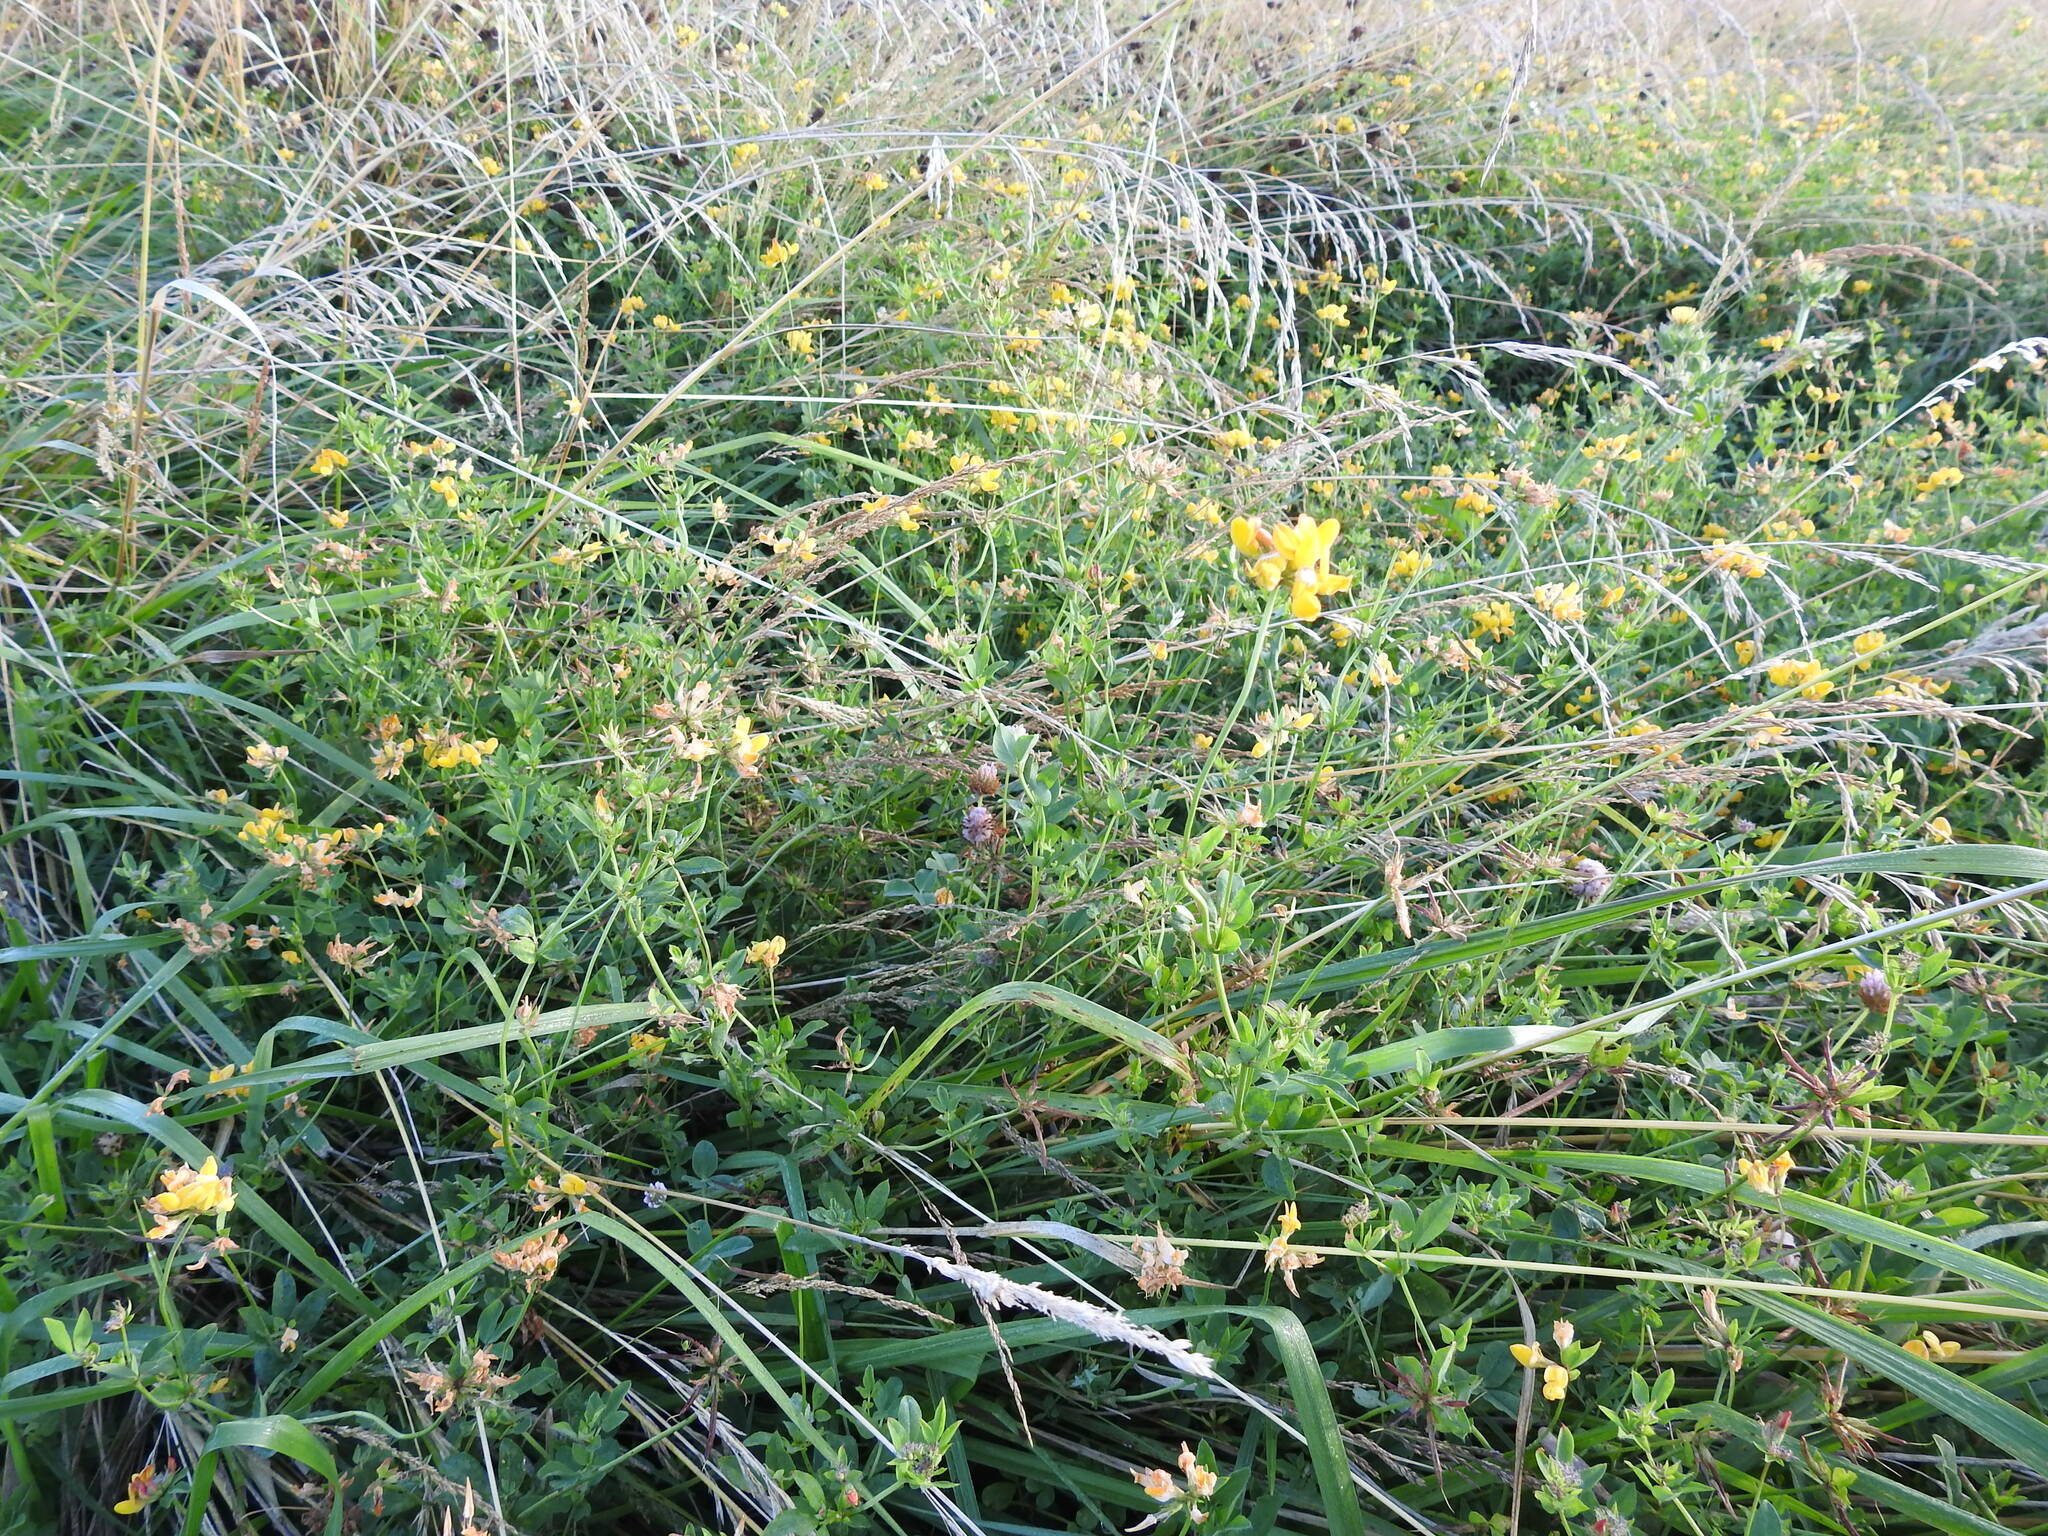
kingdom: Plantae
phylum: Tracheophyta
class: Magnoliopsida
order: Fabales
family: Fabaceae
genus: Lotus
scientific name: Lotus pedunculatus
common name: Greater birdsfoot-trefoil
